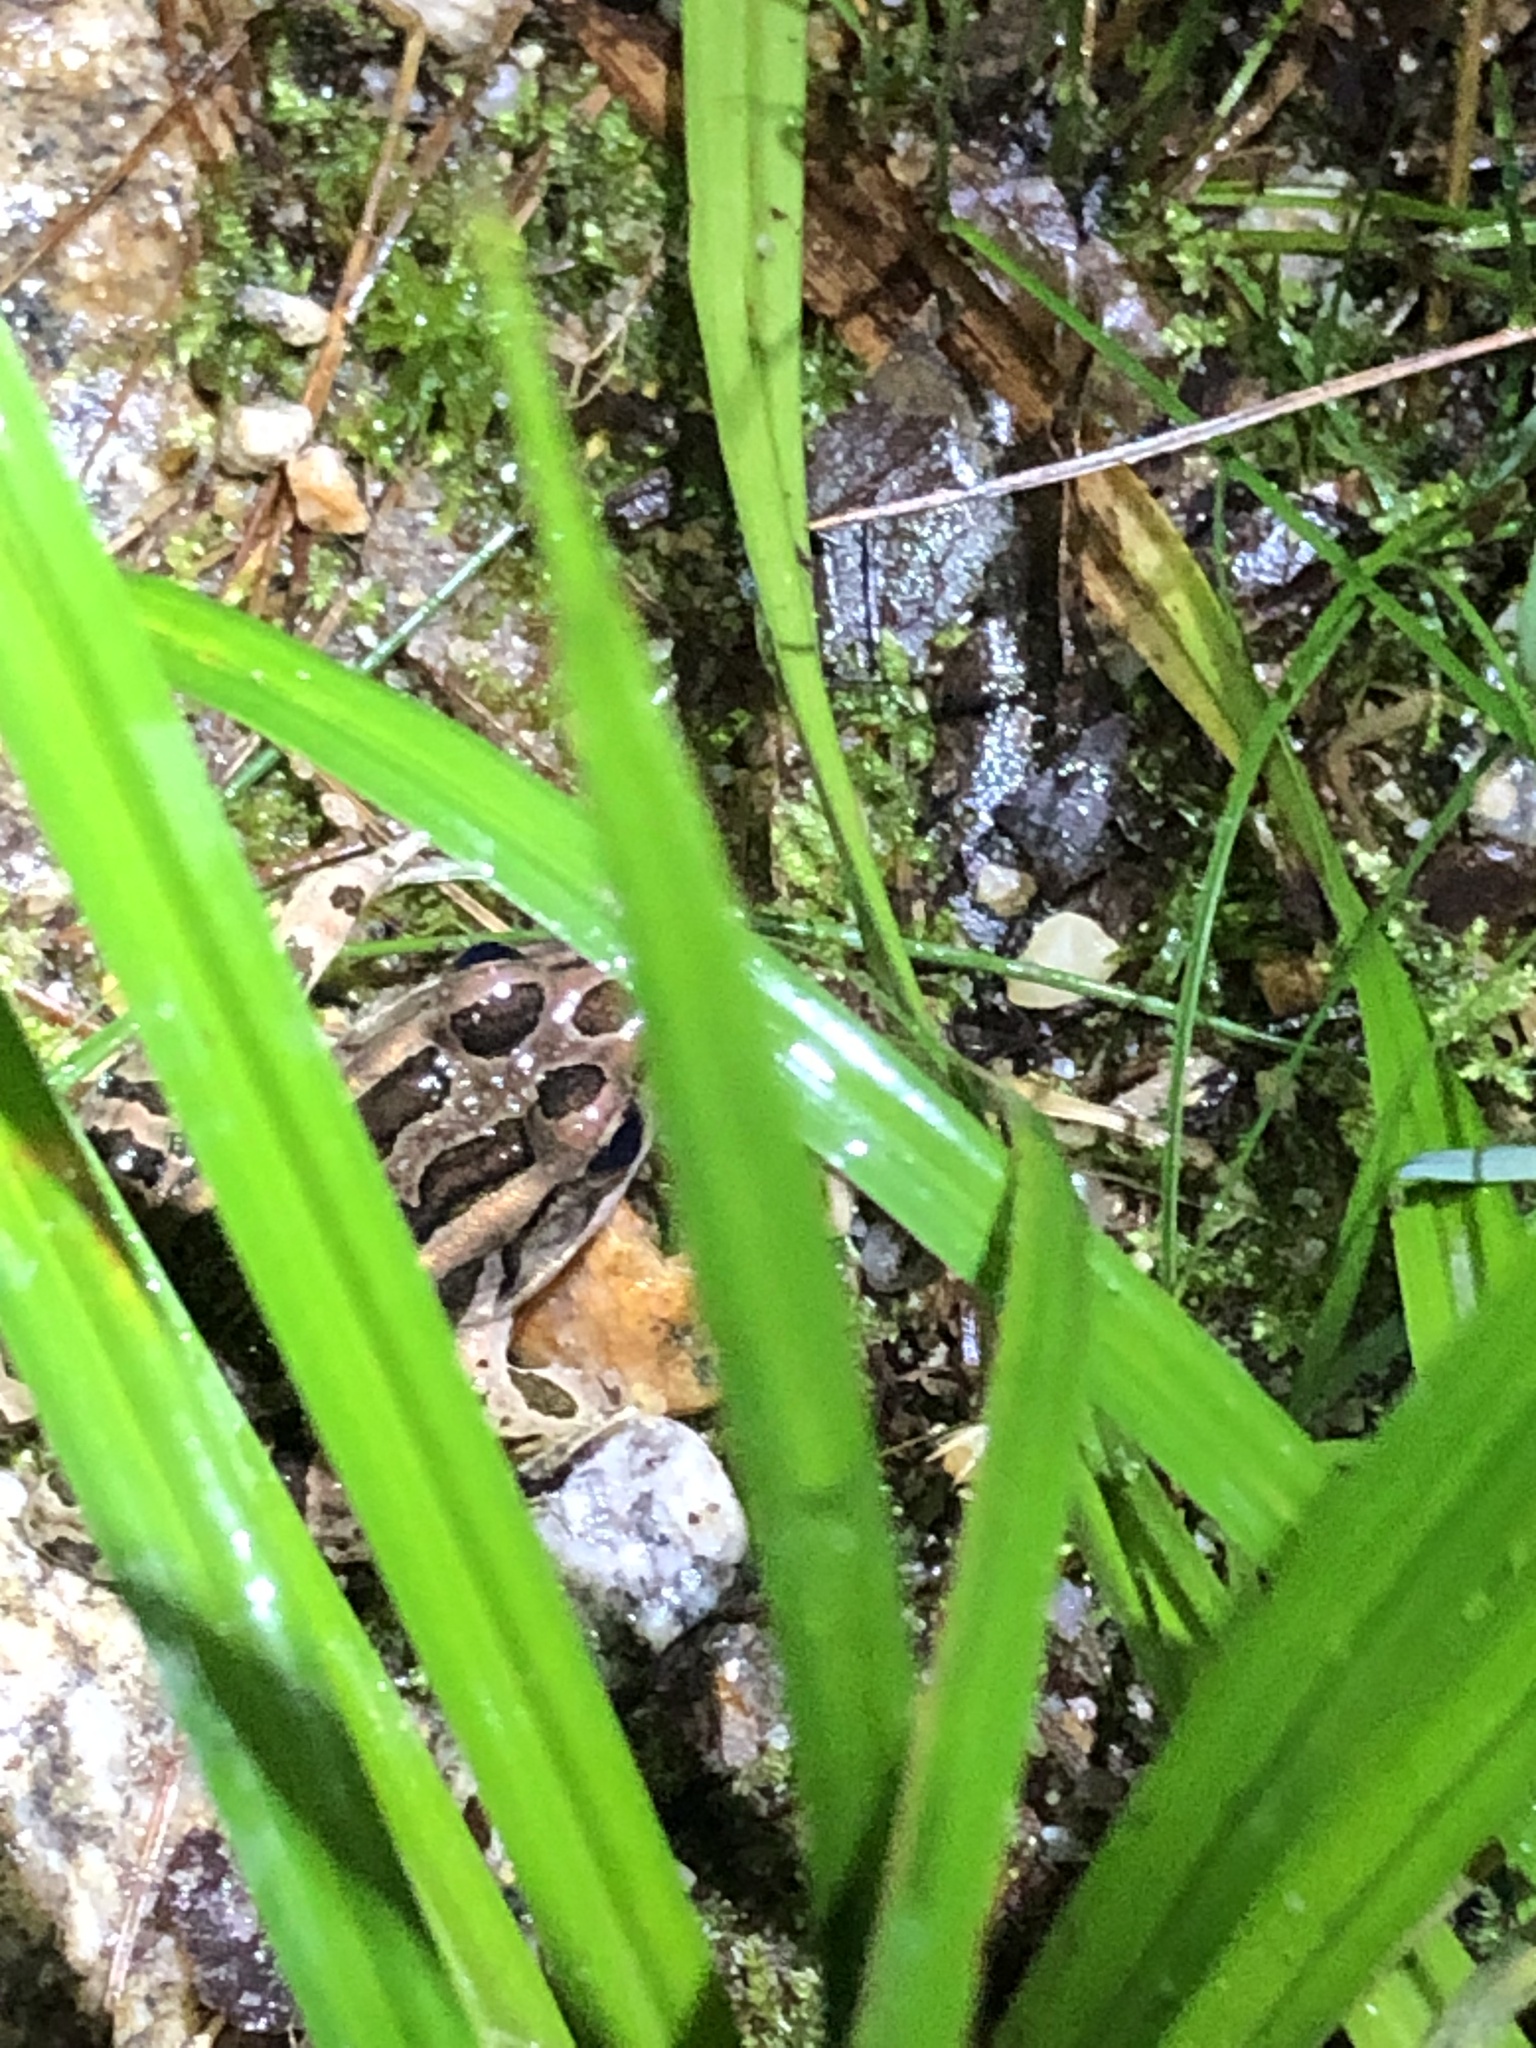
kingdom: Animalia
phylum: Chordata
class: Amphibia
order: Anura
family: Ranidae
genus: Lithobates
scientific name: Lithobates palustris
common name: Pickerel frog
